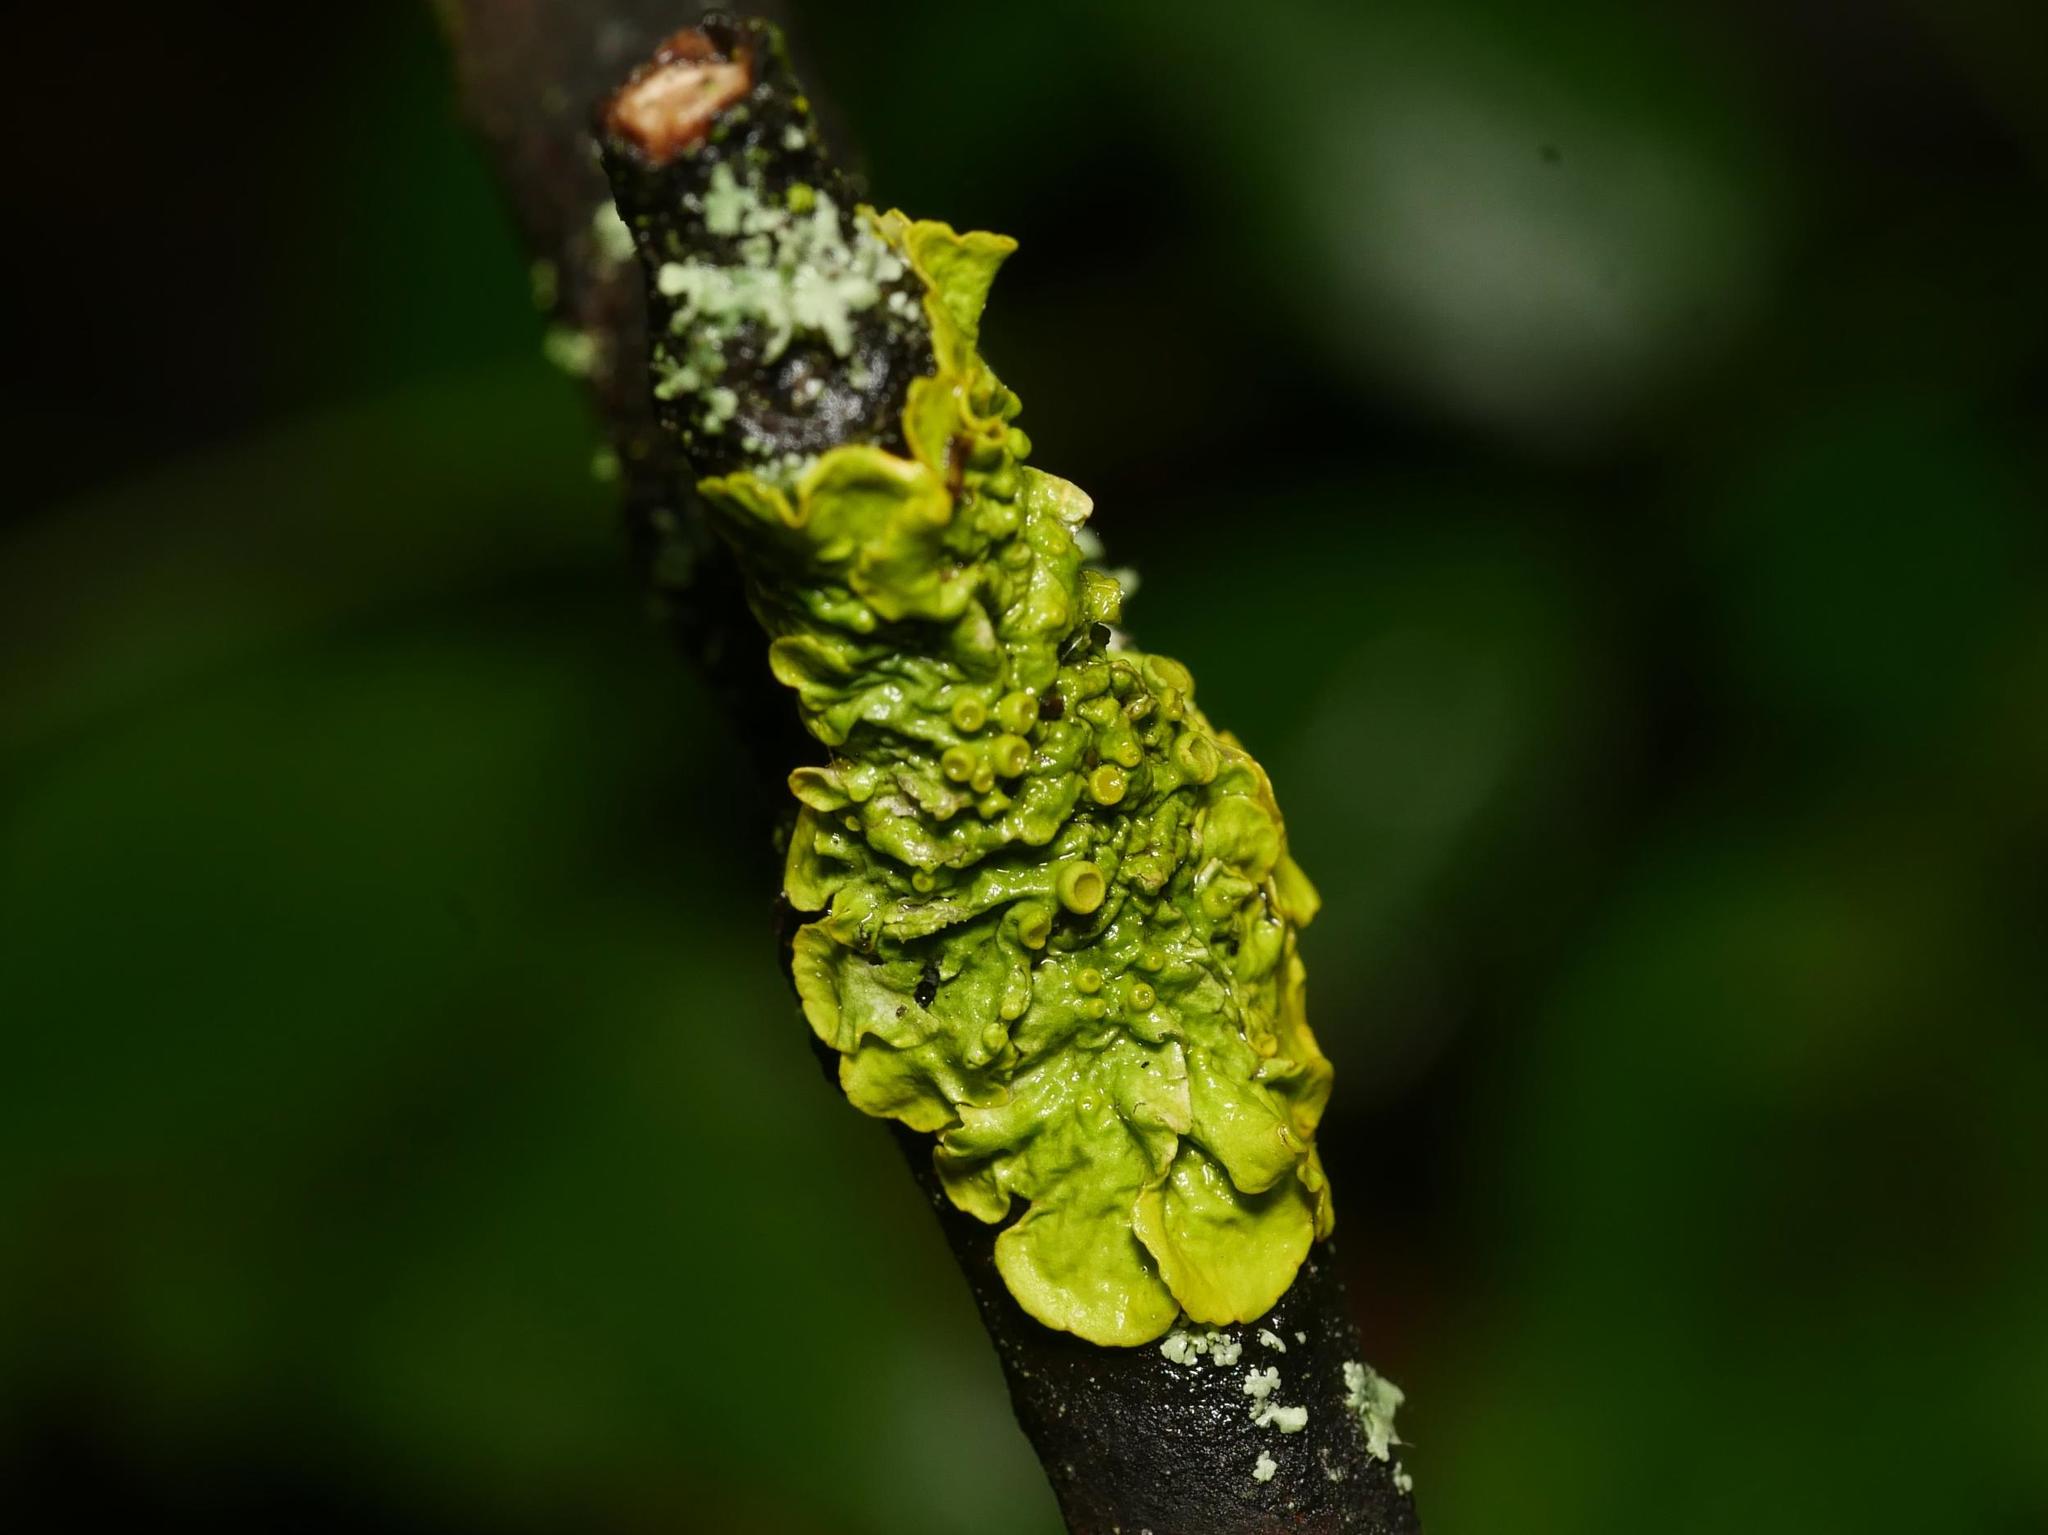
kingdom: Fungi
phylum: Ascomycota
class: Lecanoromycetes
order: Teloschistales
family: Teloschistaceae
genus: Xanthoria
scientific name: Xanthoria parietina
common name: Common orange lichen
